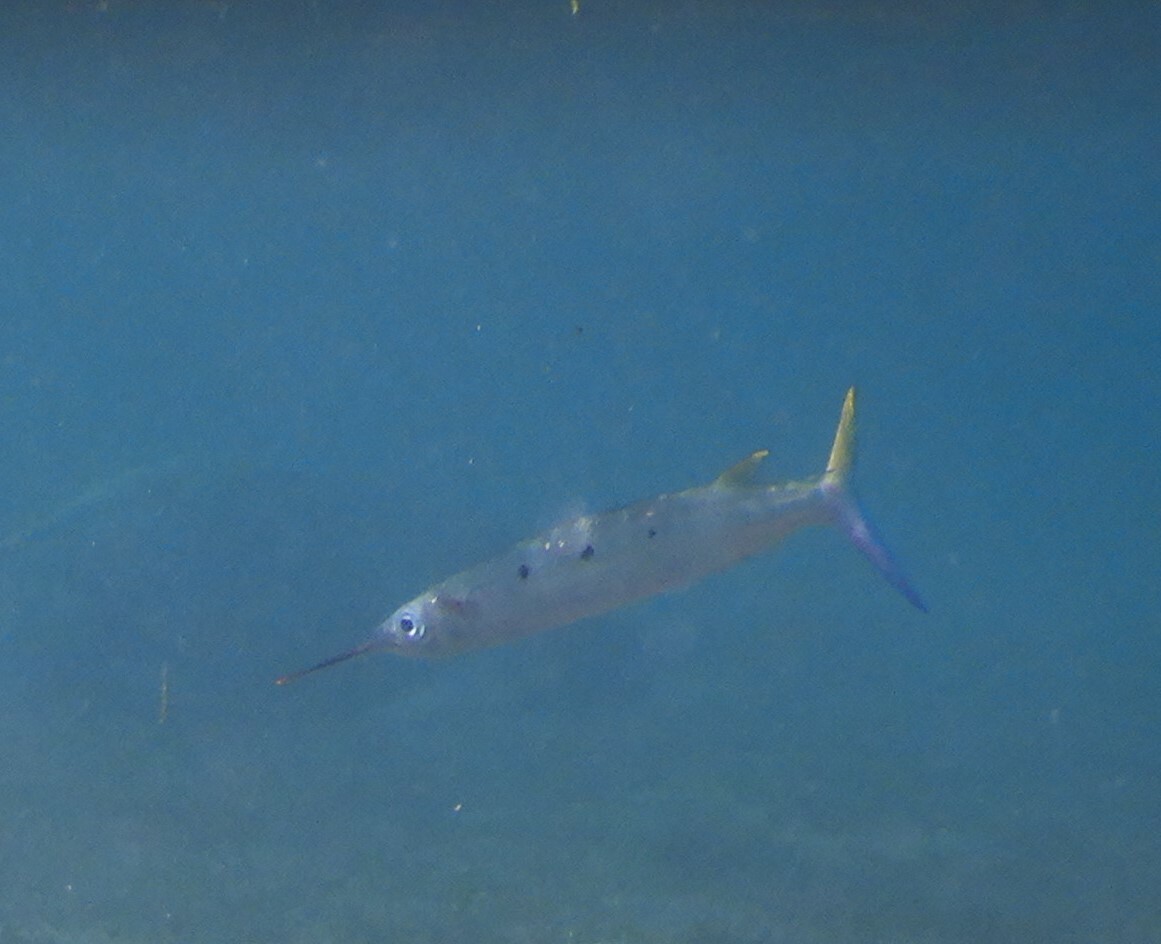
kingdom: Animalia
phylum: Chordata
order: Beloniformes
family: Hemiramphidae
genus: Hemiramphus
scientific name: Hemiramphus far
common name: Black-barred halfbeak
